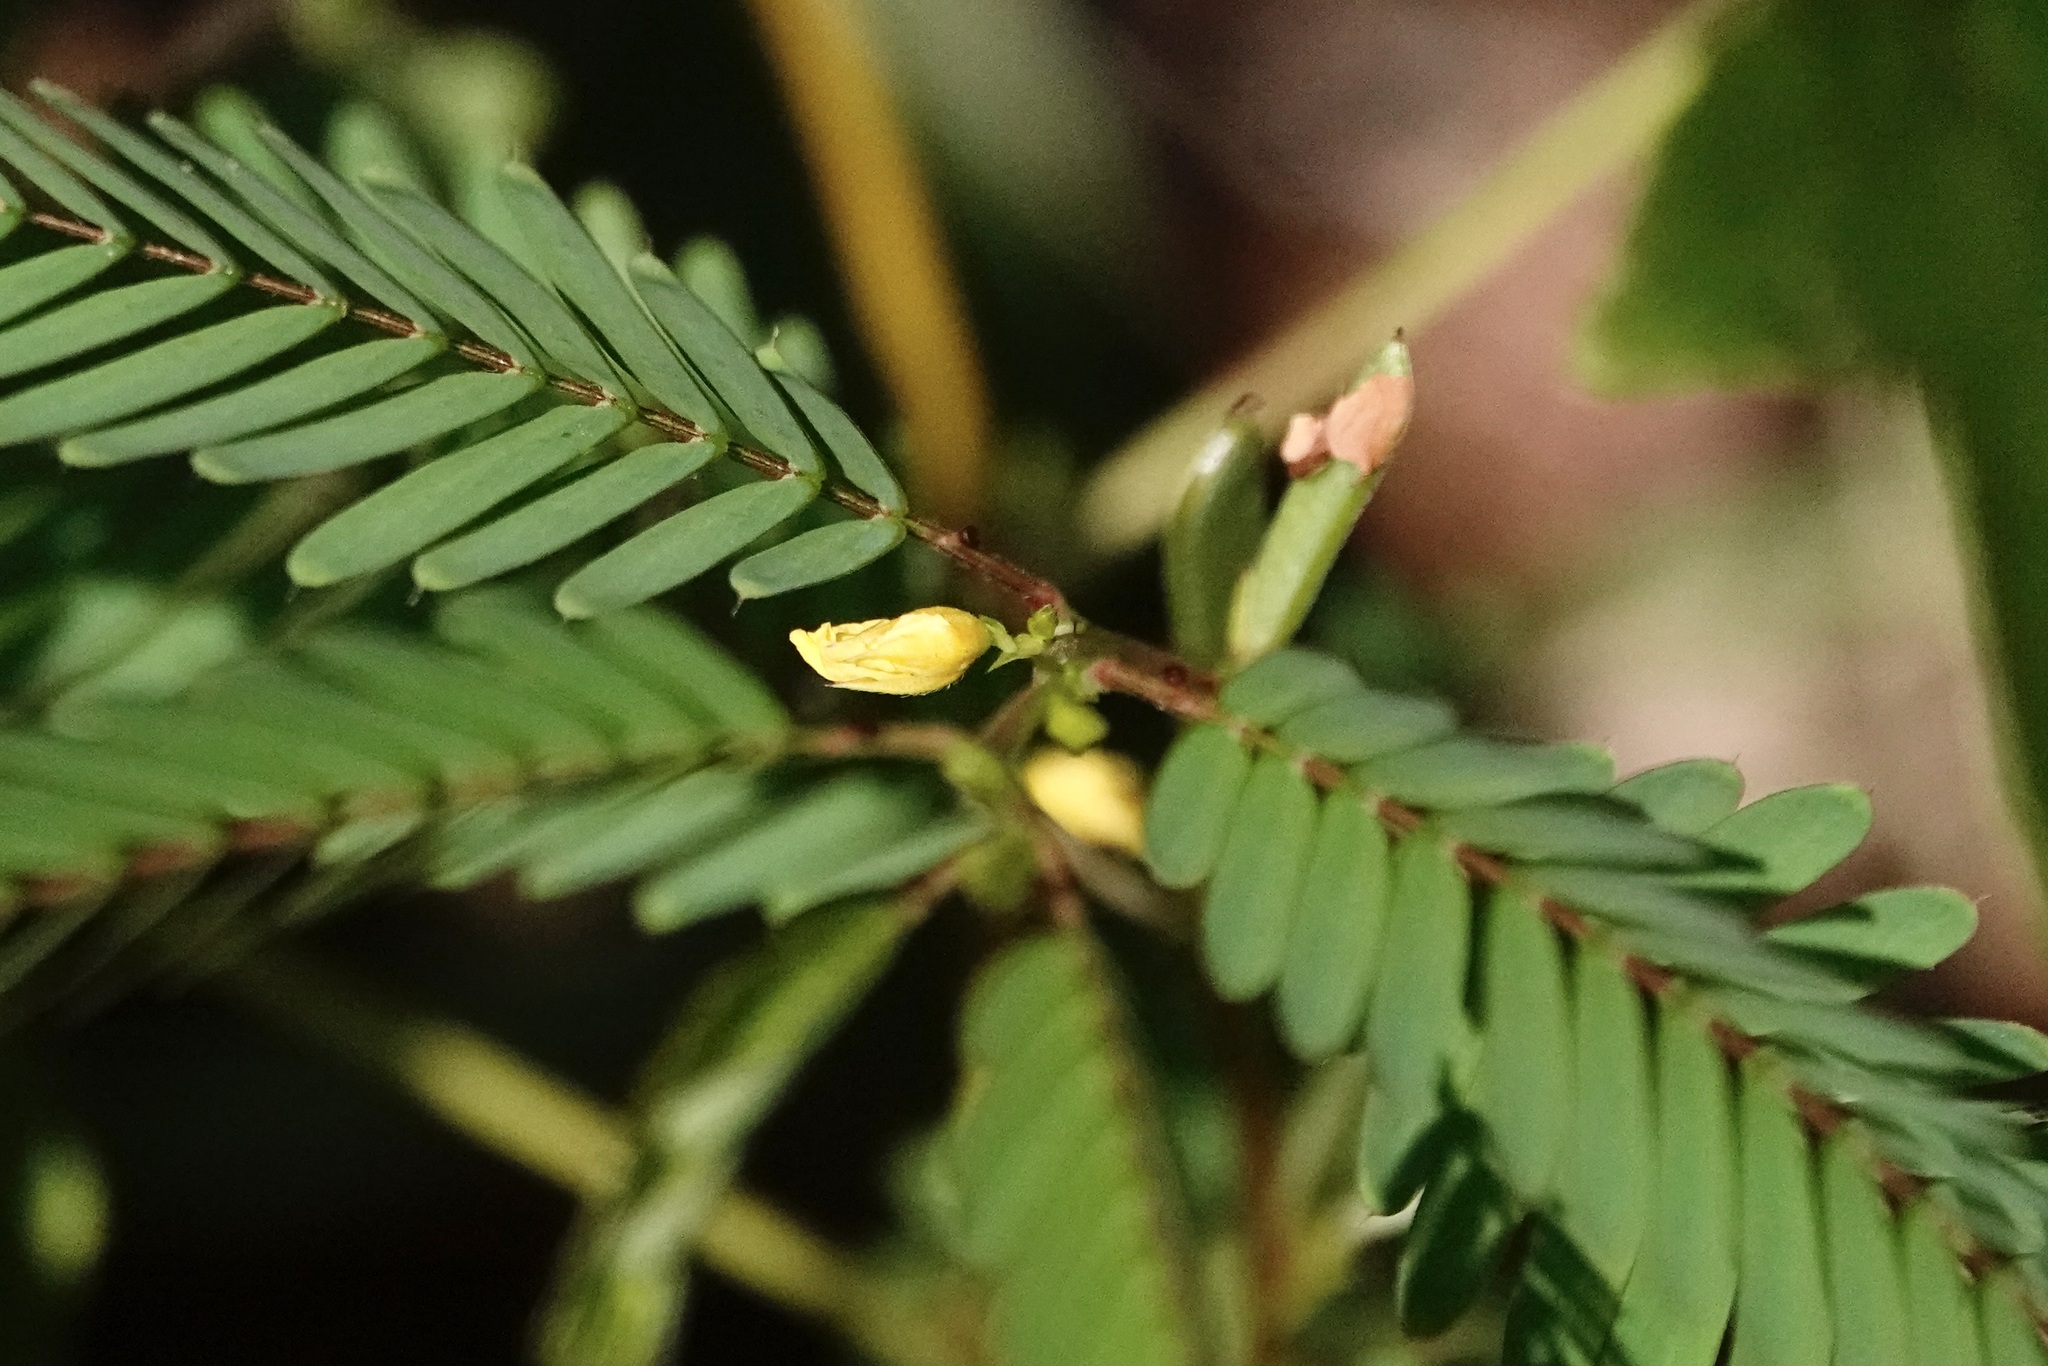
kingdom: Plantae
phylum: Tracheophyta
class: Magnoliopsida
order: Fabales
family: Fabaceae
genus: Chamaecrista
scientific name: Chamaecrista nictitans
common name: Sensitive cassia
